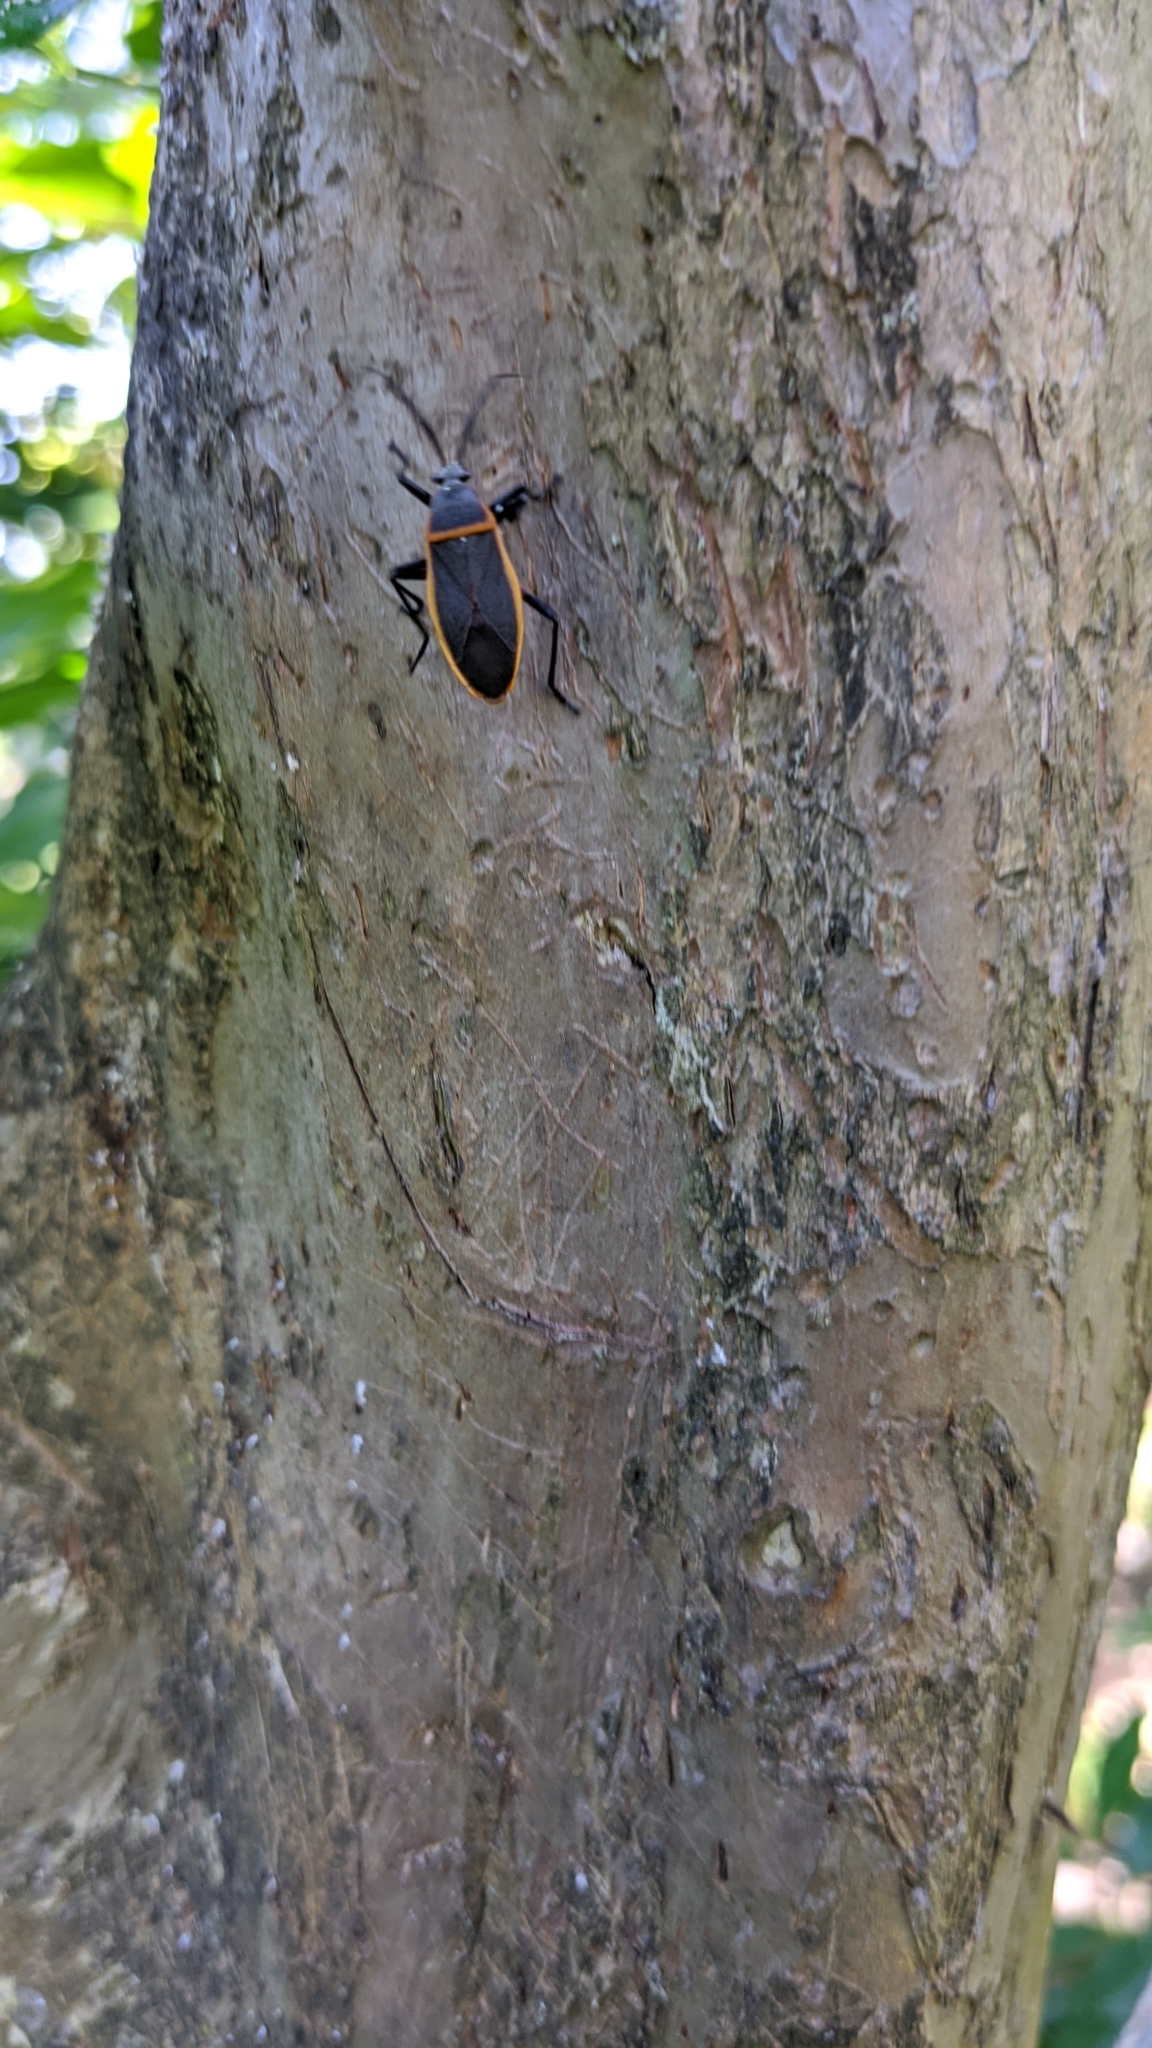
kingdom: Animalia
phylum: Arthropoda
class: Insecta
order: Hemiptera
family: Largidae
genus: Largus
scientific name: Largus succinctus
